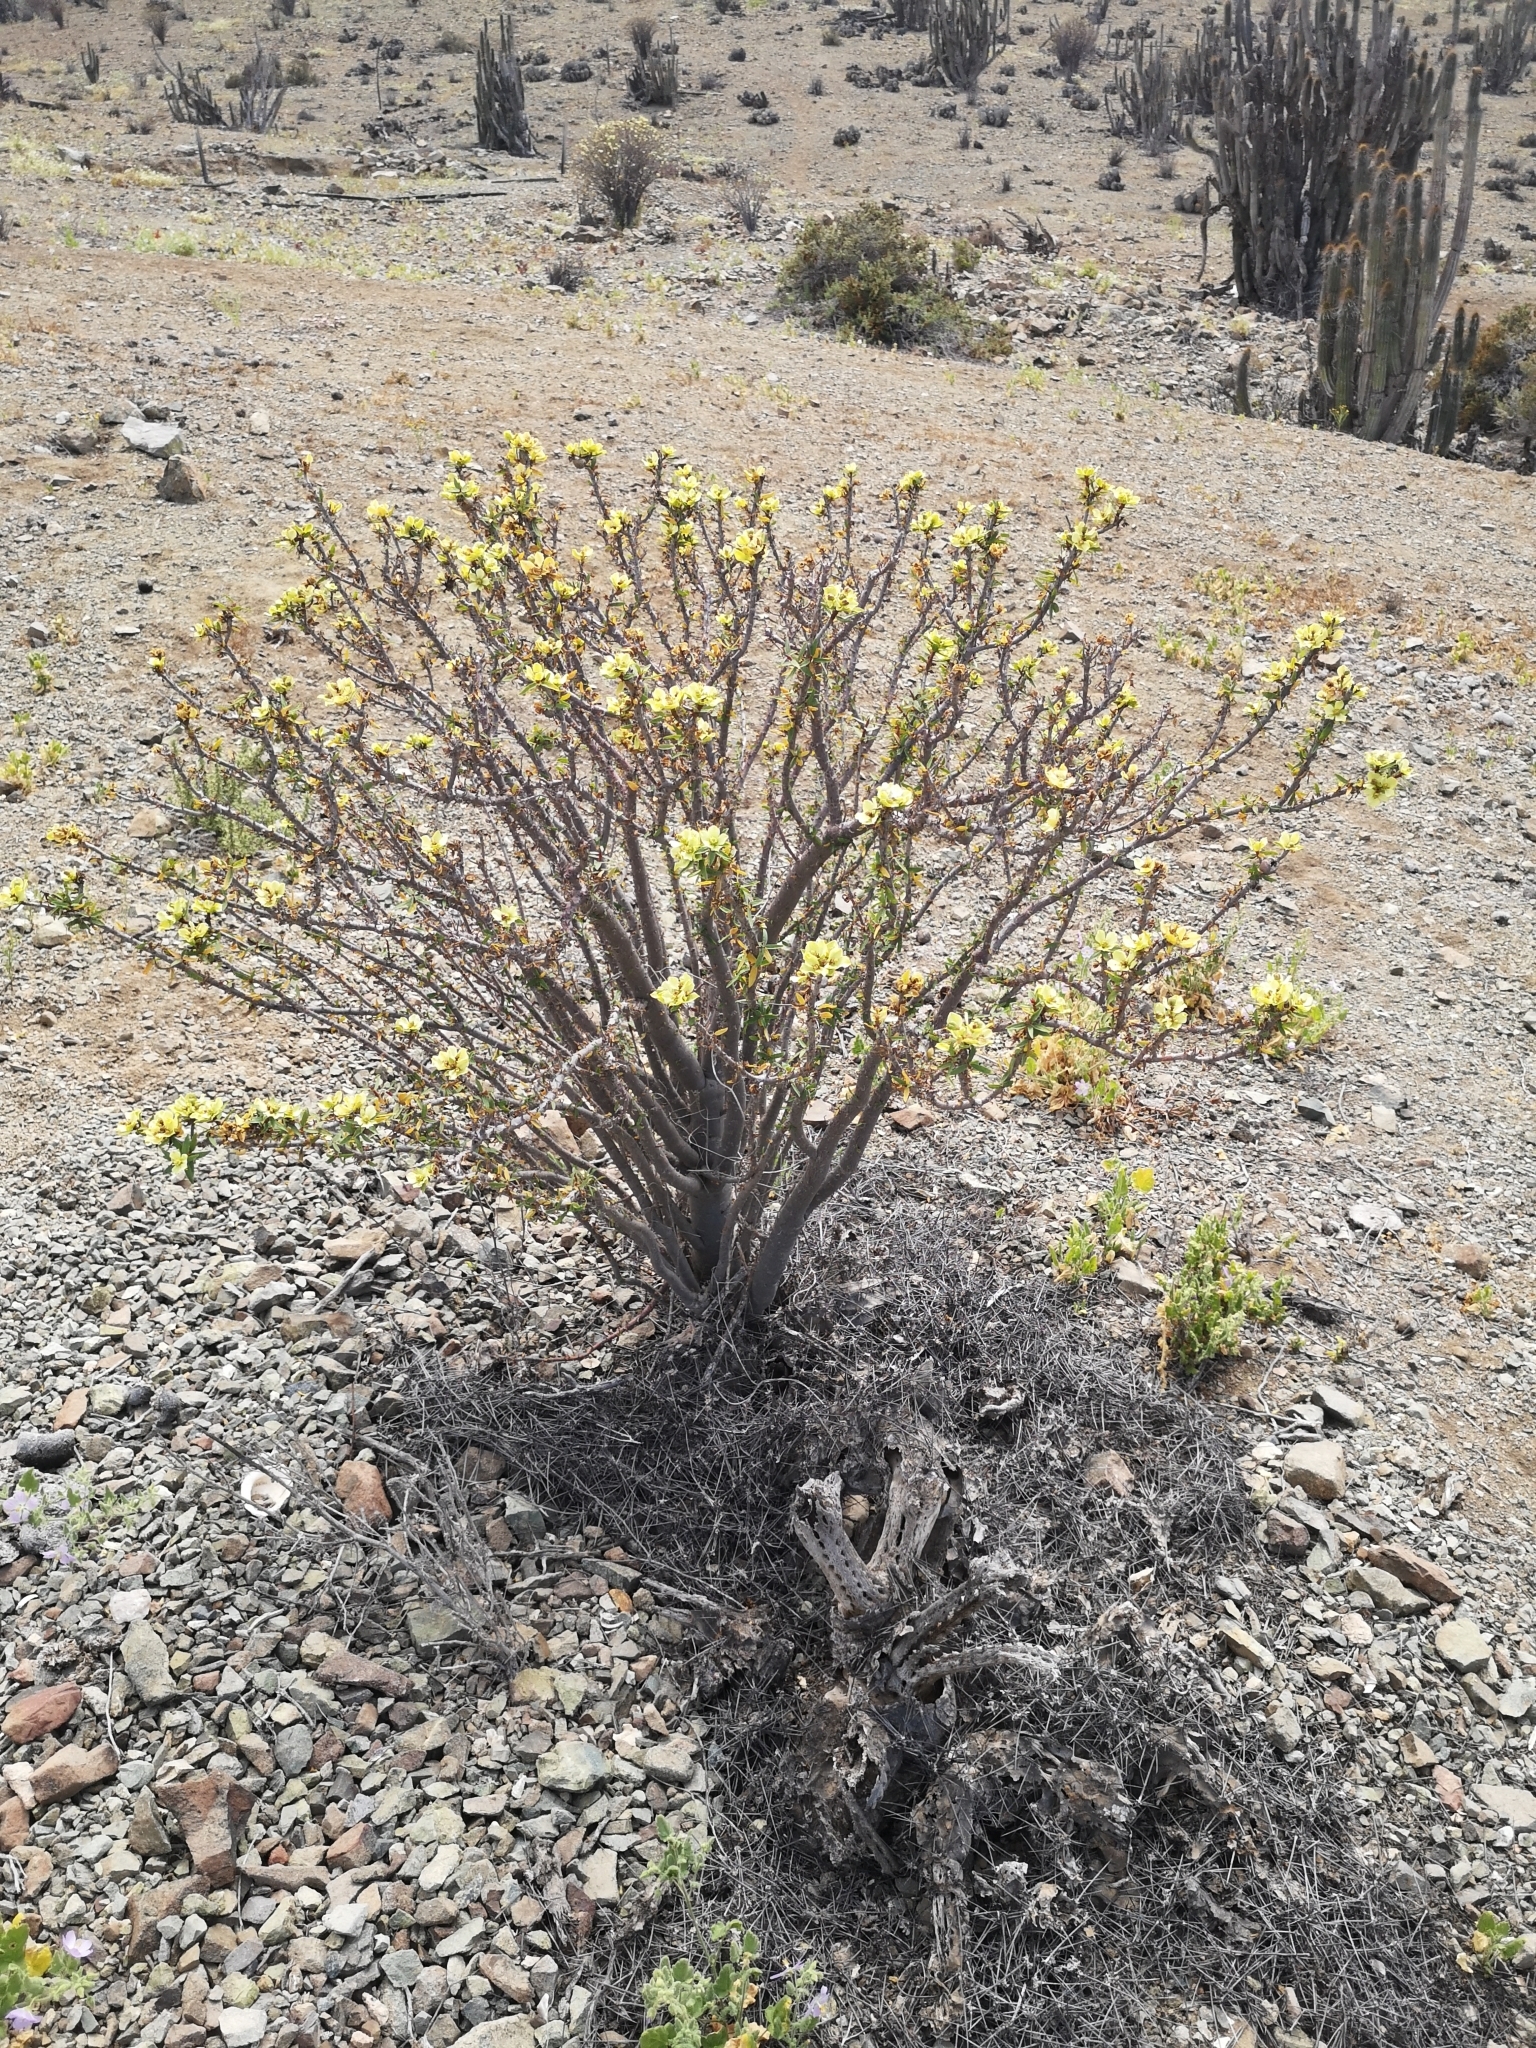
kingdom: Plantae
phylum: Tracheophyta
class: Magnoliopsida
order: Malpighiales
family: Euphorbiaceae
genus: Euphorbia
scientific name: Euphorbia lactiflua
